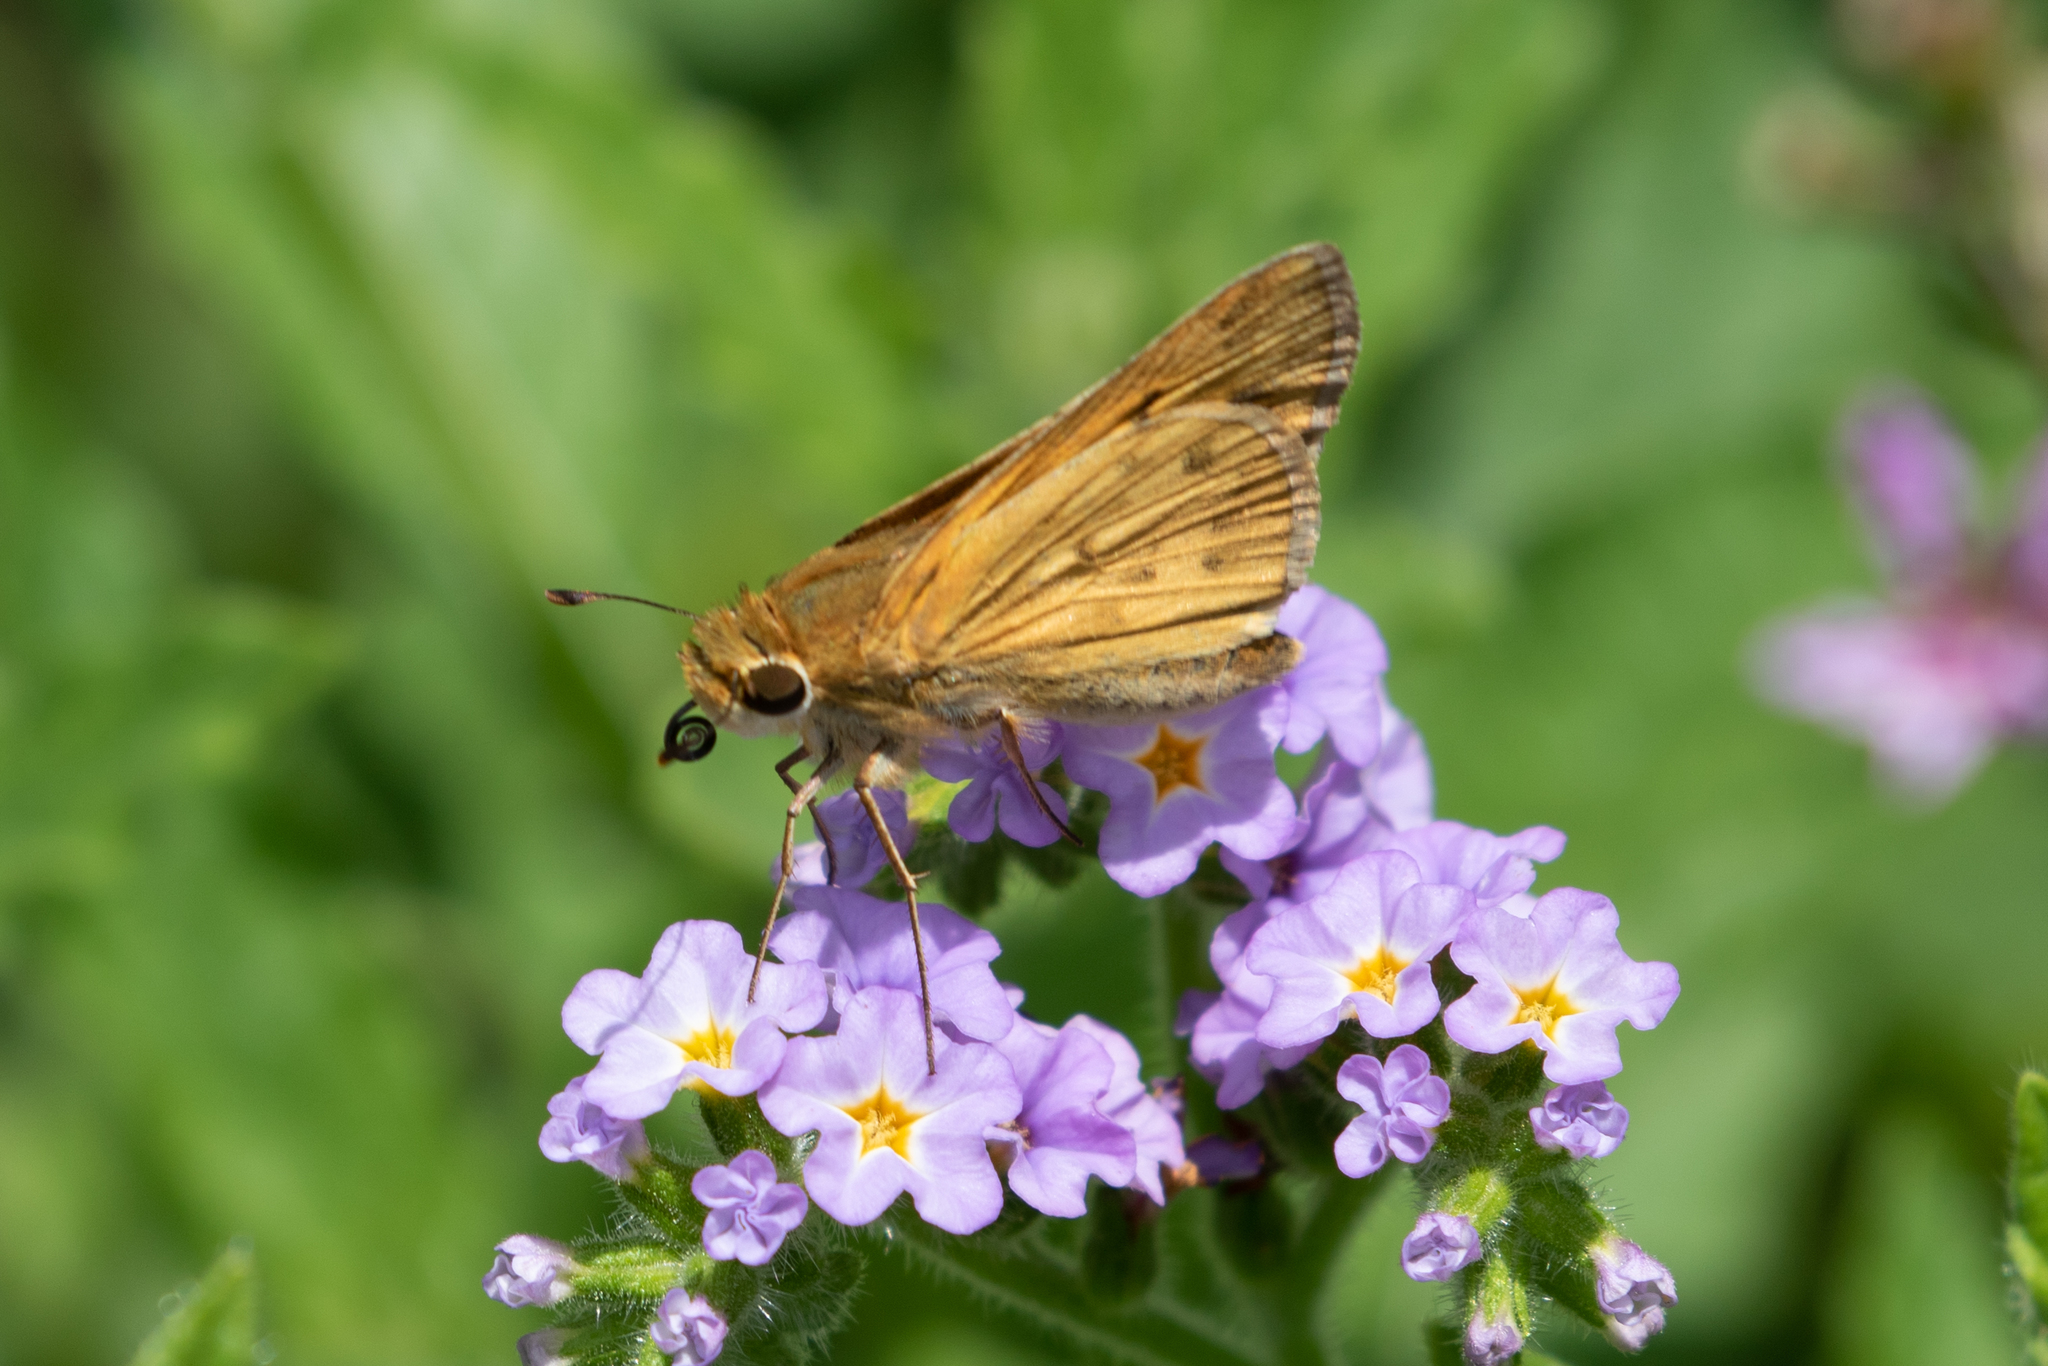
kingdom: Animalia
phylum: Arthropoda
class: Insecta
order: Lepidoptera
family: Hesperiidae
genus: Hylephila
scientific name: Hylephila phyleus
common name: Fiery skipper
